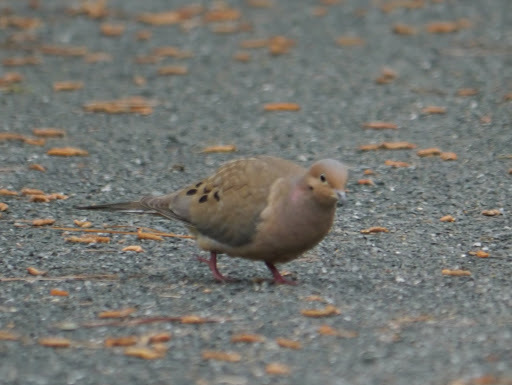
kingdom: Animalia
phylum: Chordata
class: Aves
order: Columbiformes
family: Columbidae
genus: Zenaida
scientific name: Zenaida macroura
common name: Mourning dove
